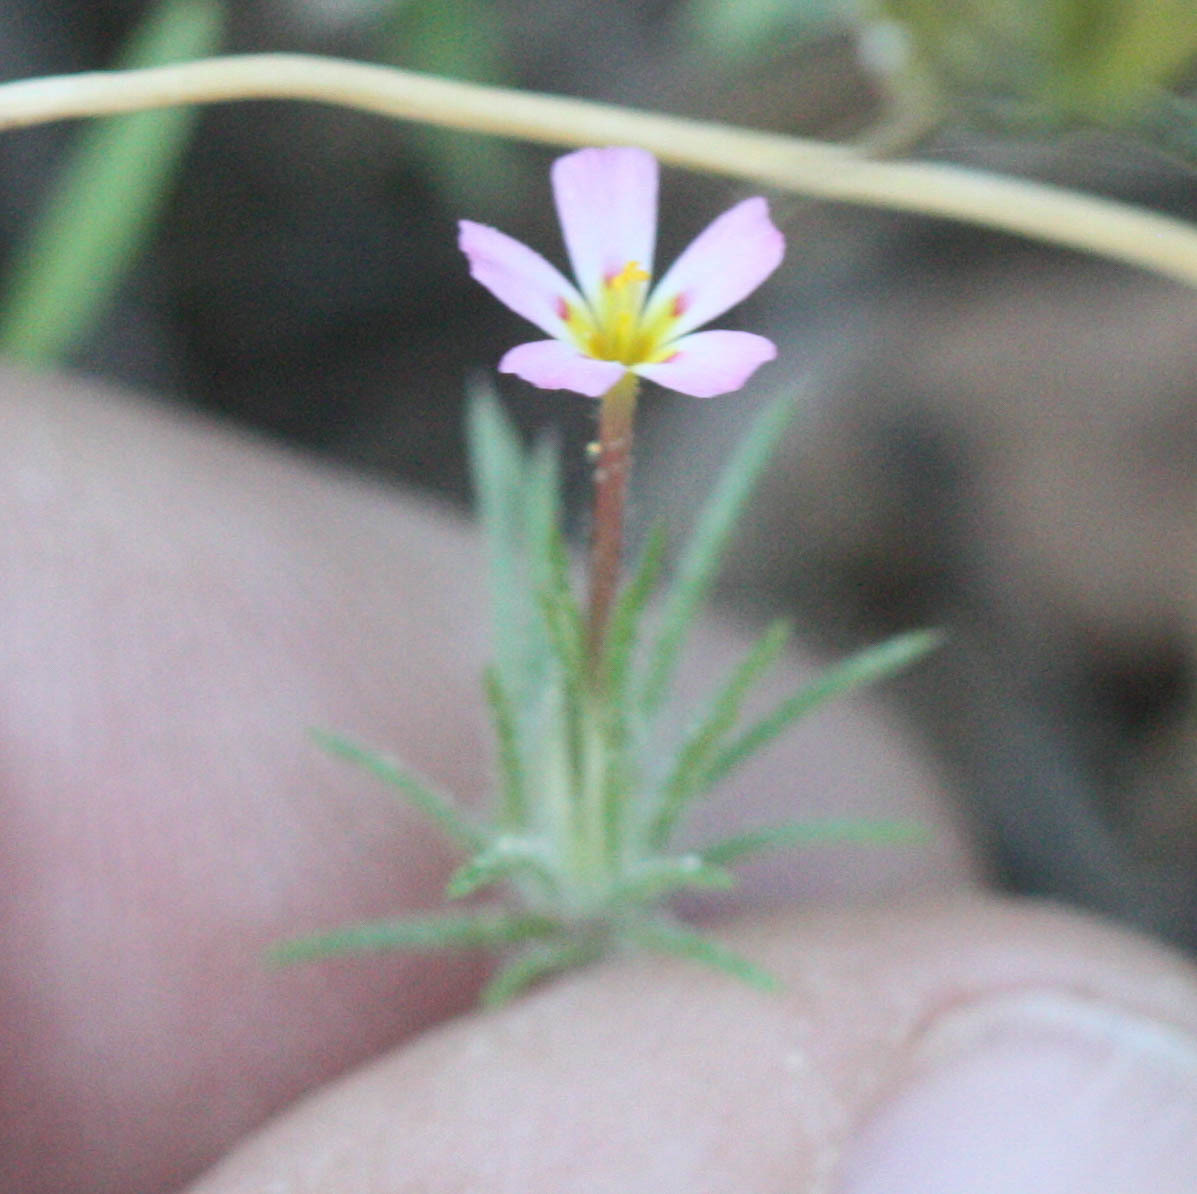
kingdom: Plantae
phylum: Tracheophyta
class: Magnoliopsida
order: Ericales
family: Polemoniaceae
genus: Leptosiphon
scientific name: Leptosiphon ciliatus
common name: Whiskerbrush
